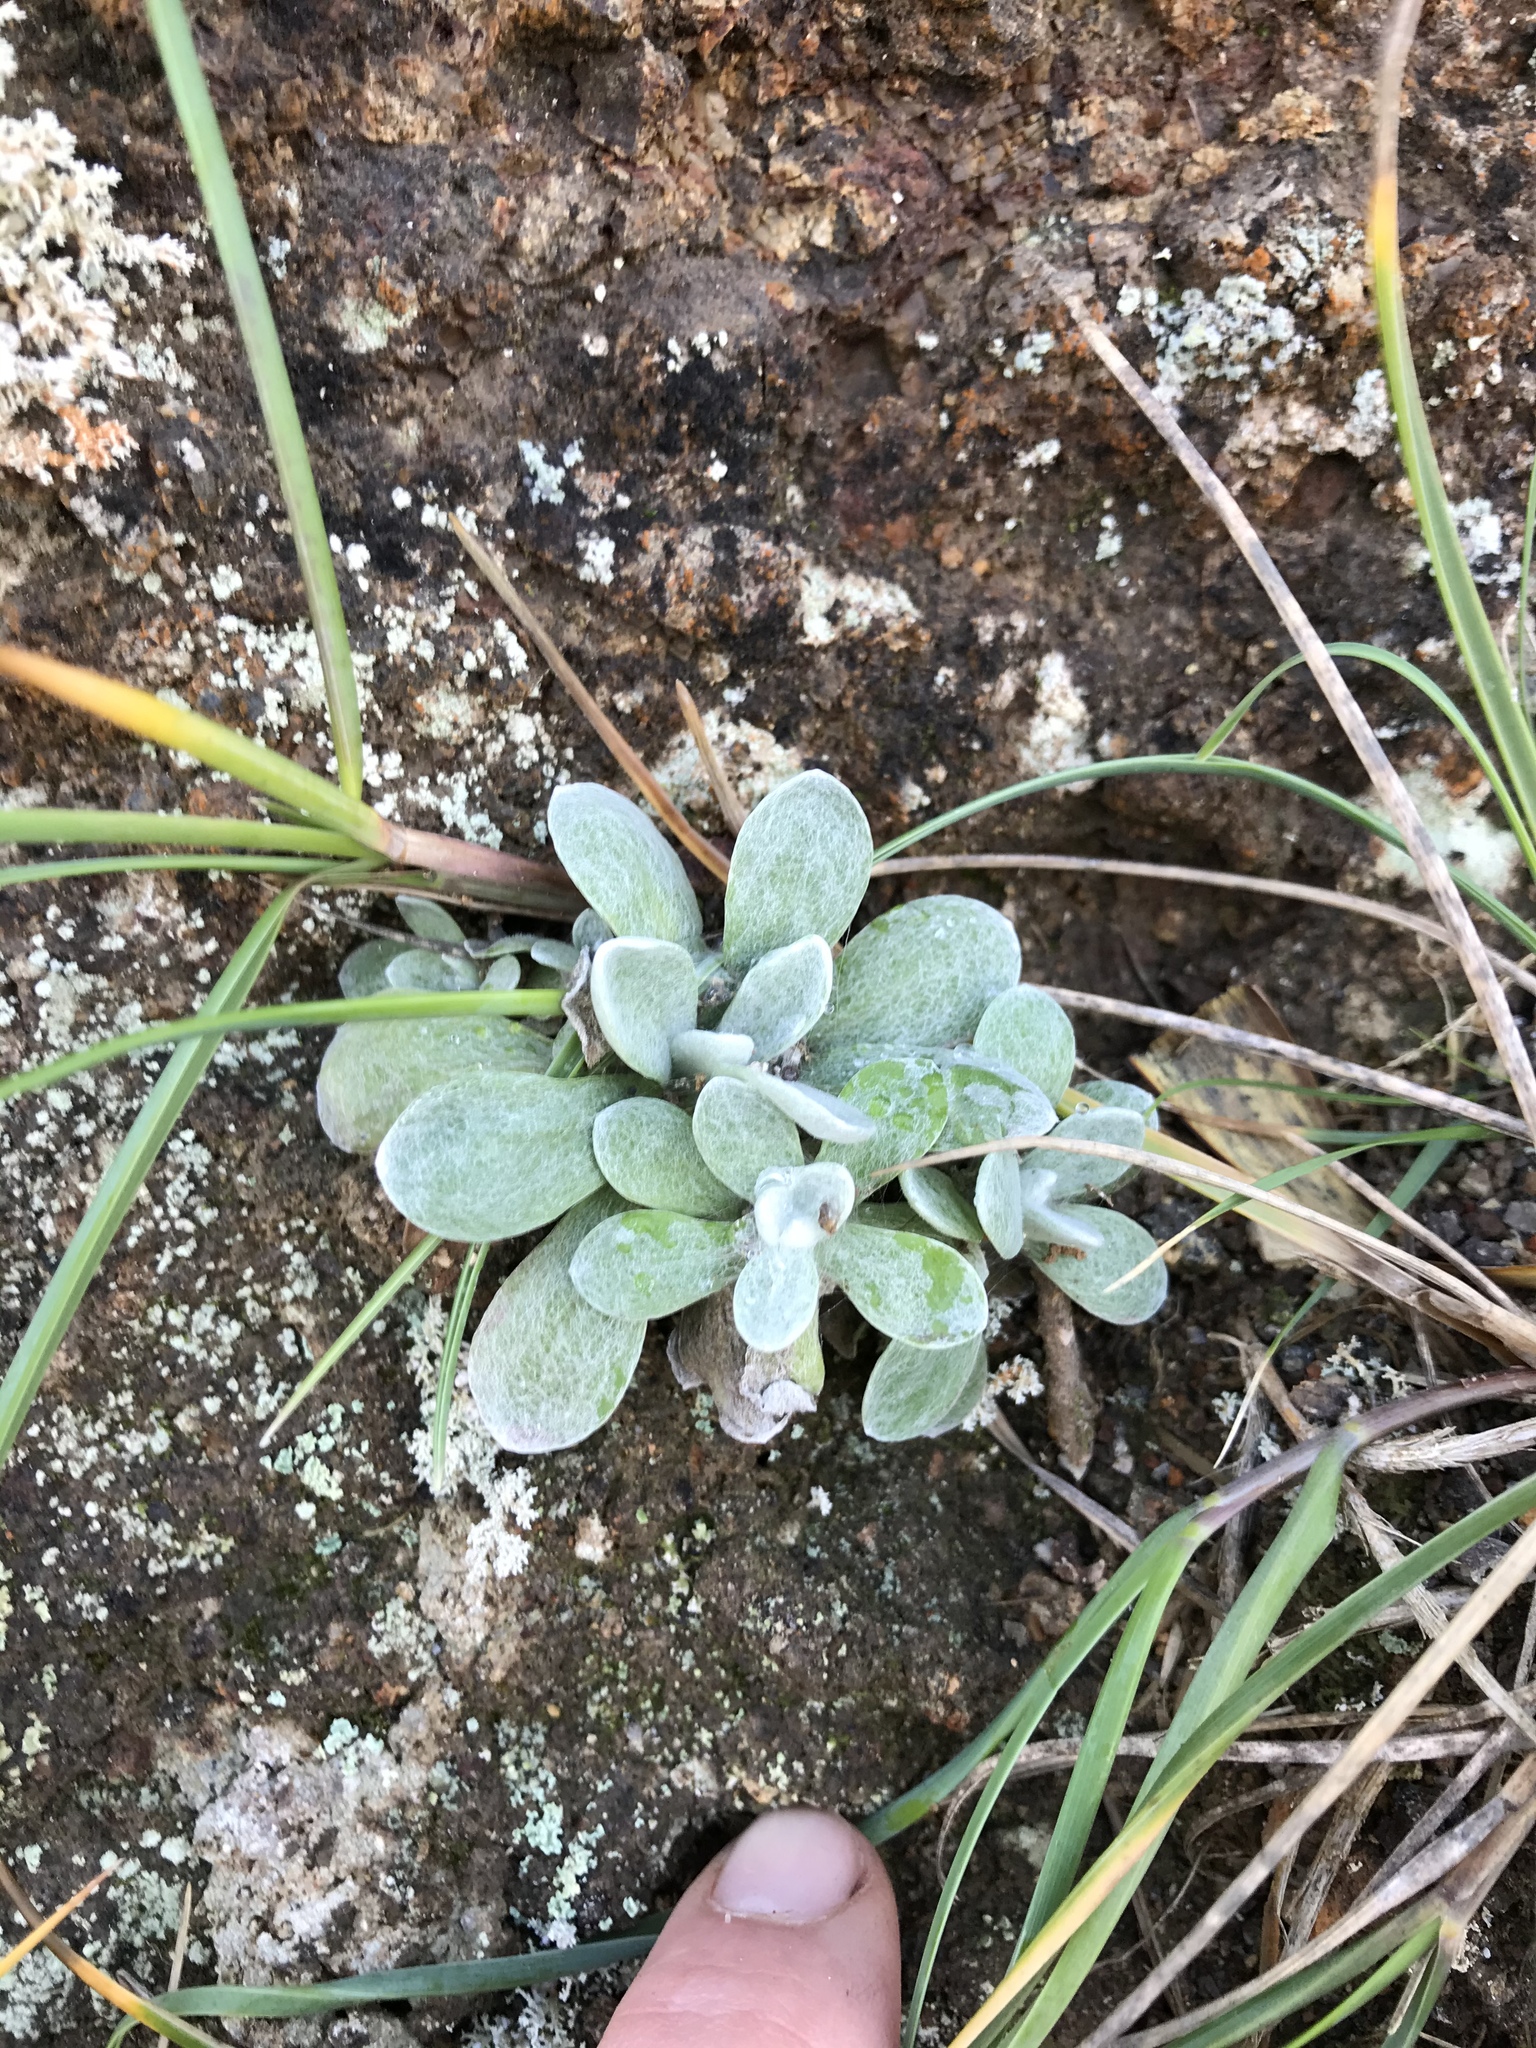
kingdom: Plantae
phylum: Tracheophyta
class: Magnoliopsida
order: Asterales
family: Asteraceae
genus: Pseudognaphalium
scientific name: Pseudognaphalium
